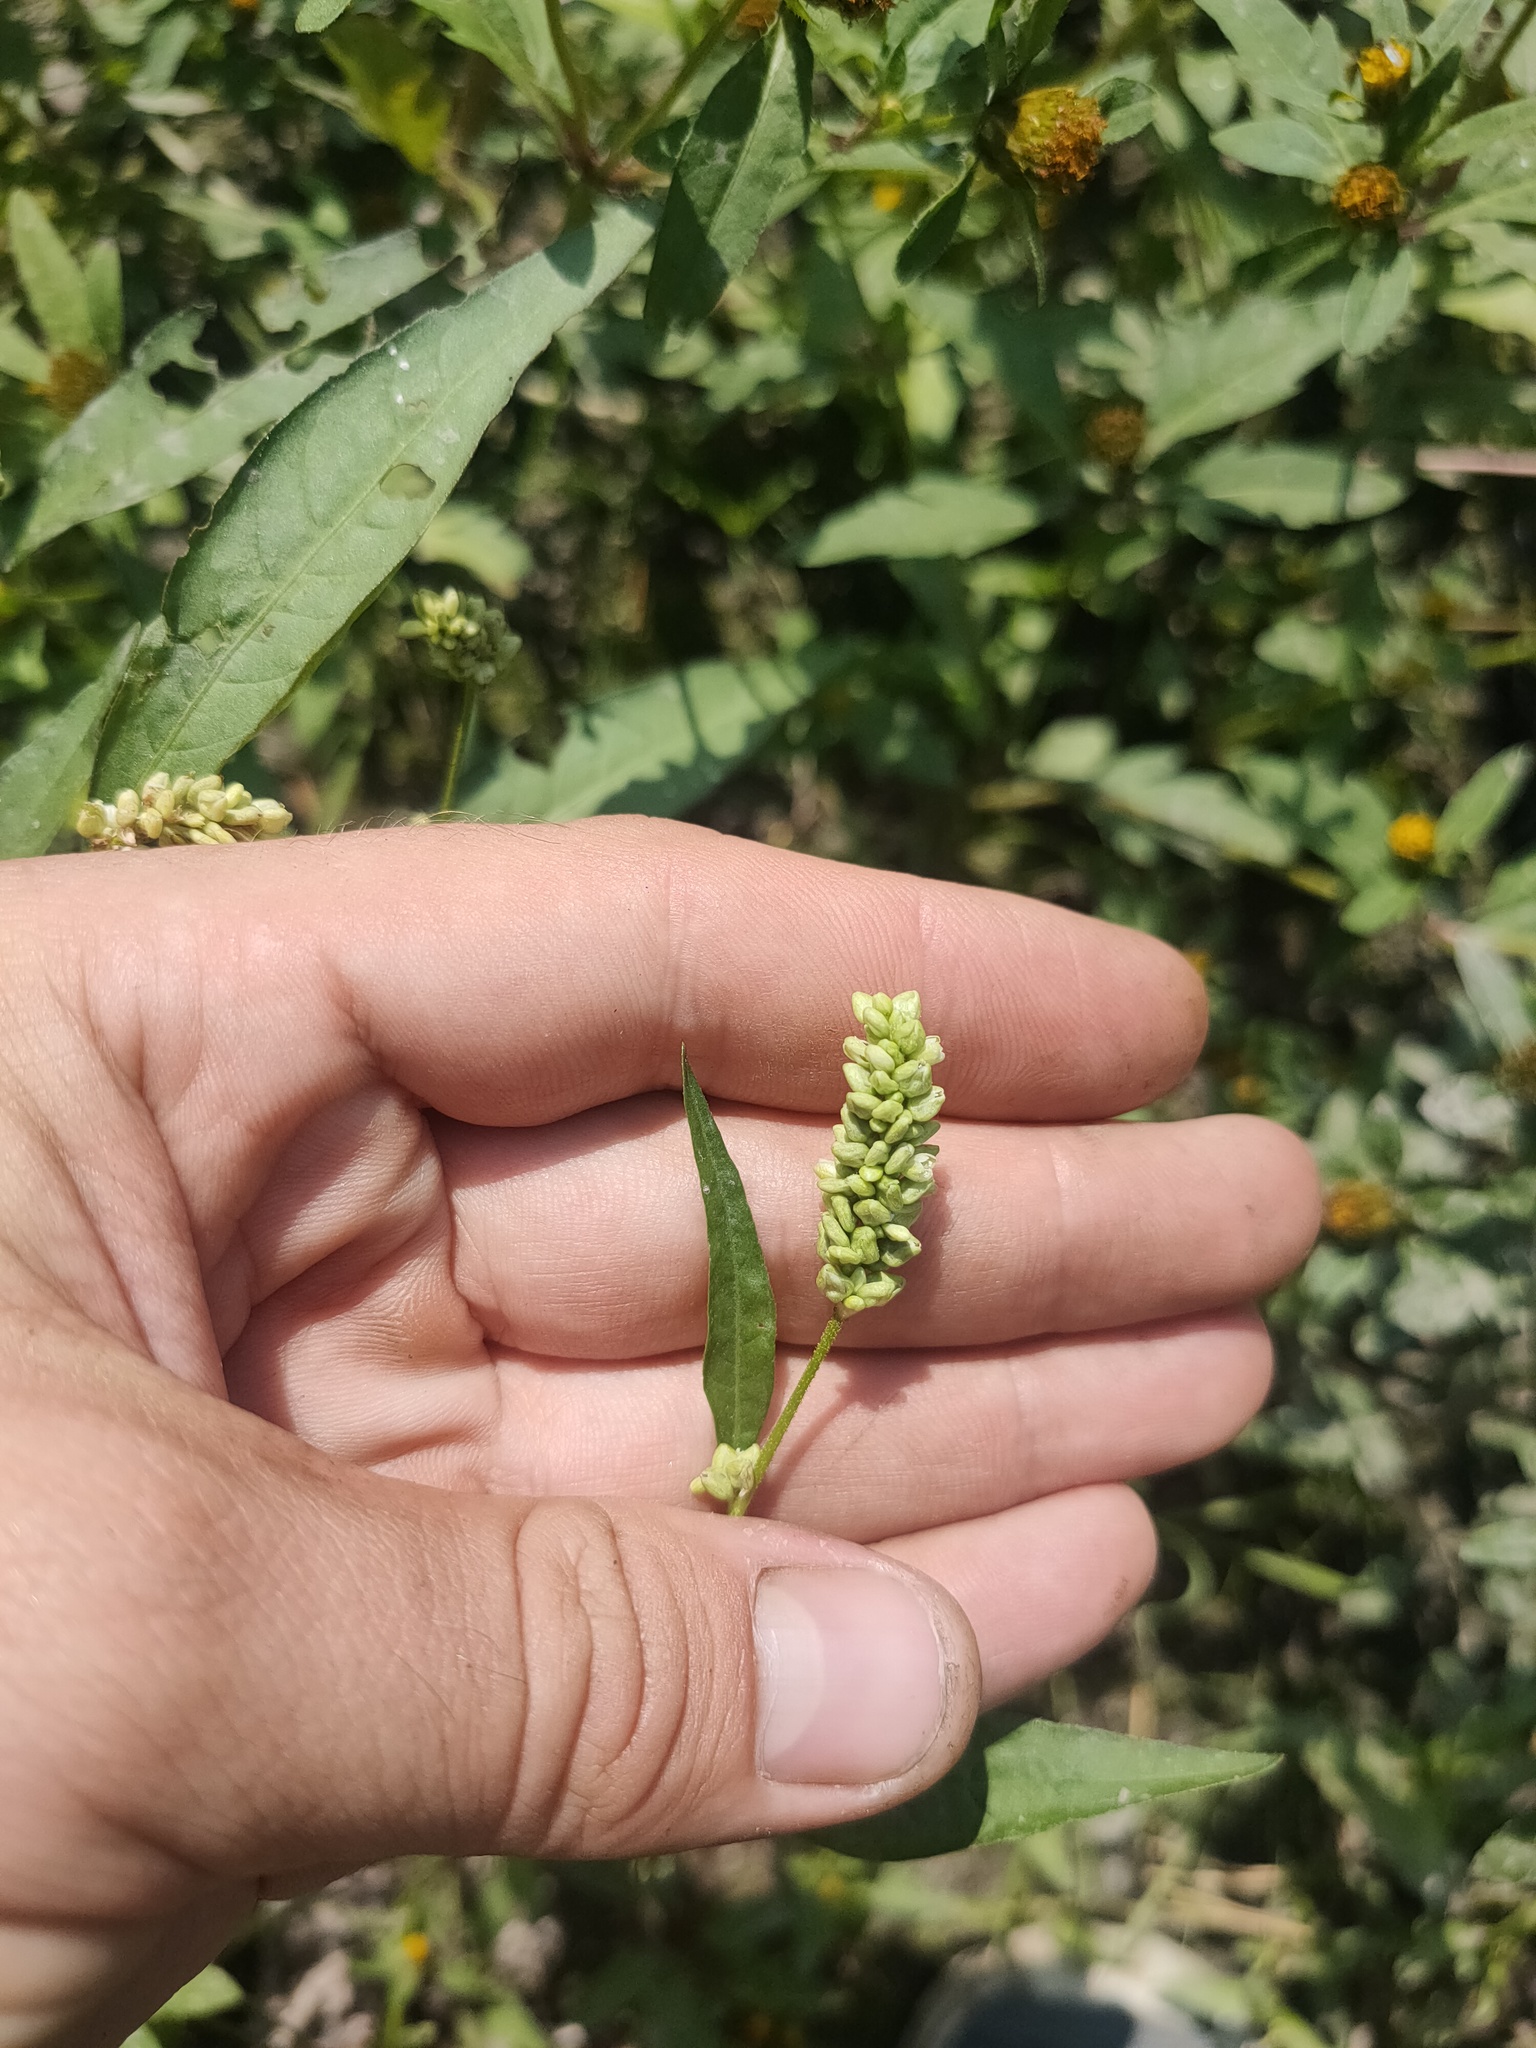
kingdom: Plantae
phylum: Tracheophyta
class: Magnoliopsida
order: Caryophyllales
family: Polygonaceae
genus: Persicaria
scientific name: Persicaria lapathifolia
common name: Curlytop knotweed
